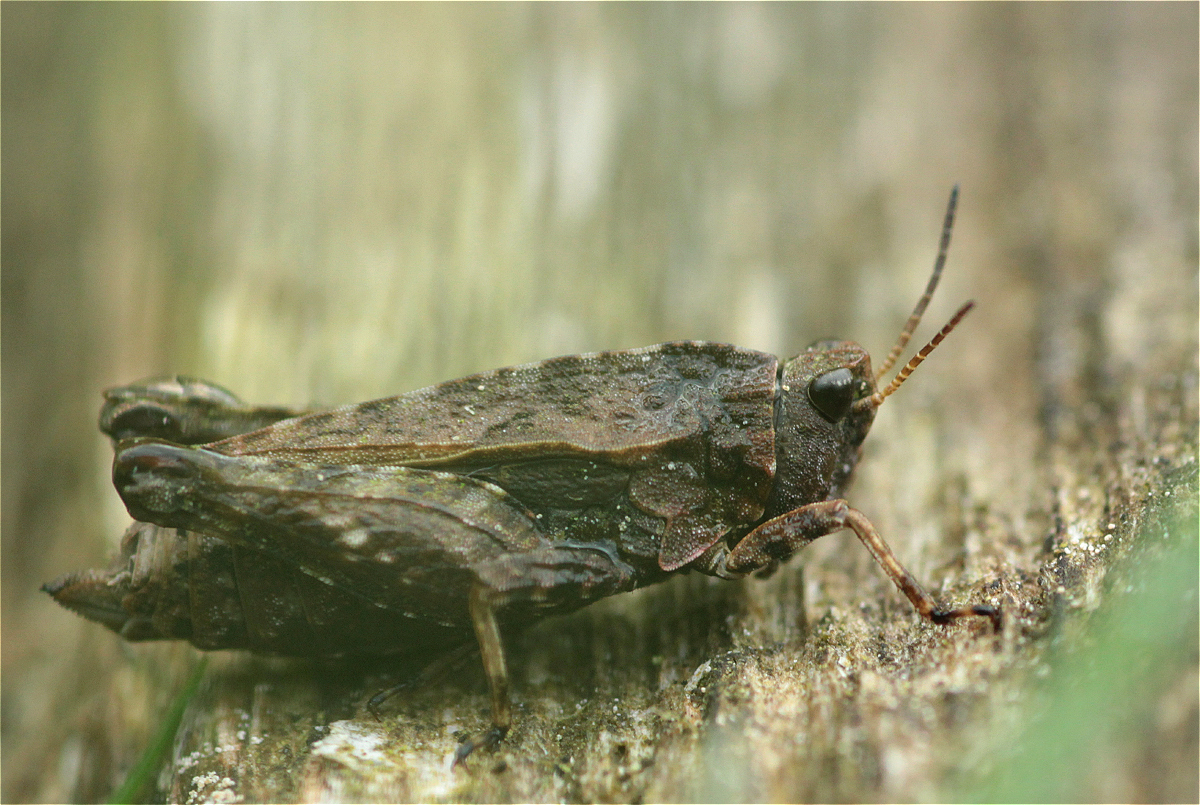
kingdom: Animalia
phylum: Arthropoda
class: Insecta
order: Orthoptera
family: Tetrigidae
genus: Tetrix
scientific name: Tetrix undulata
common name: Common groundhopper
